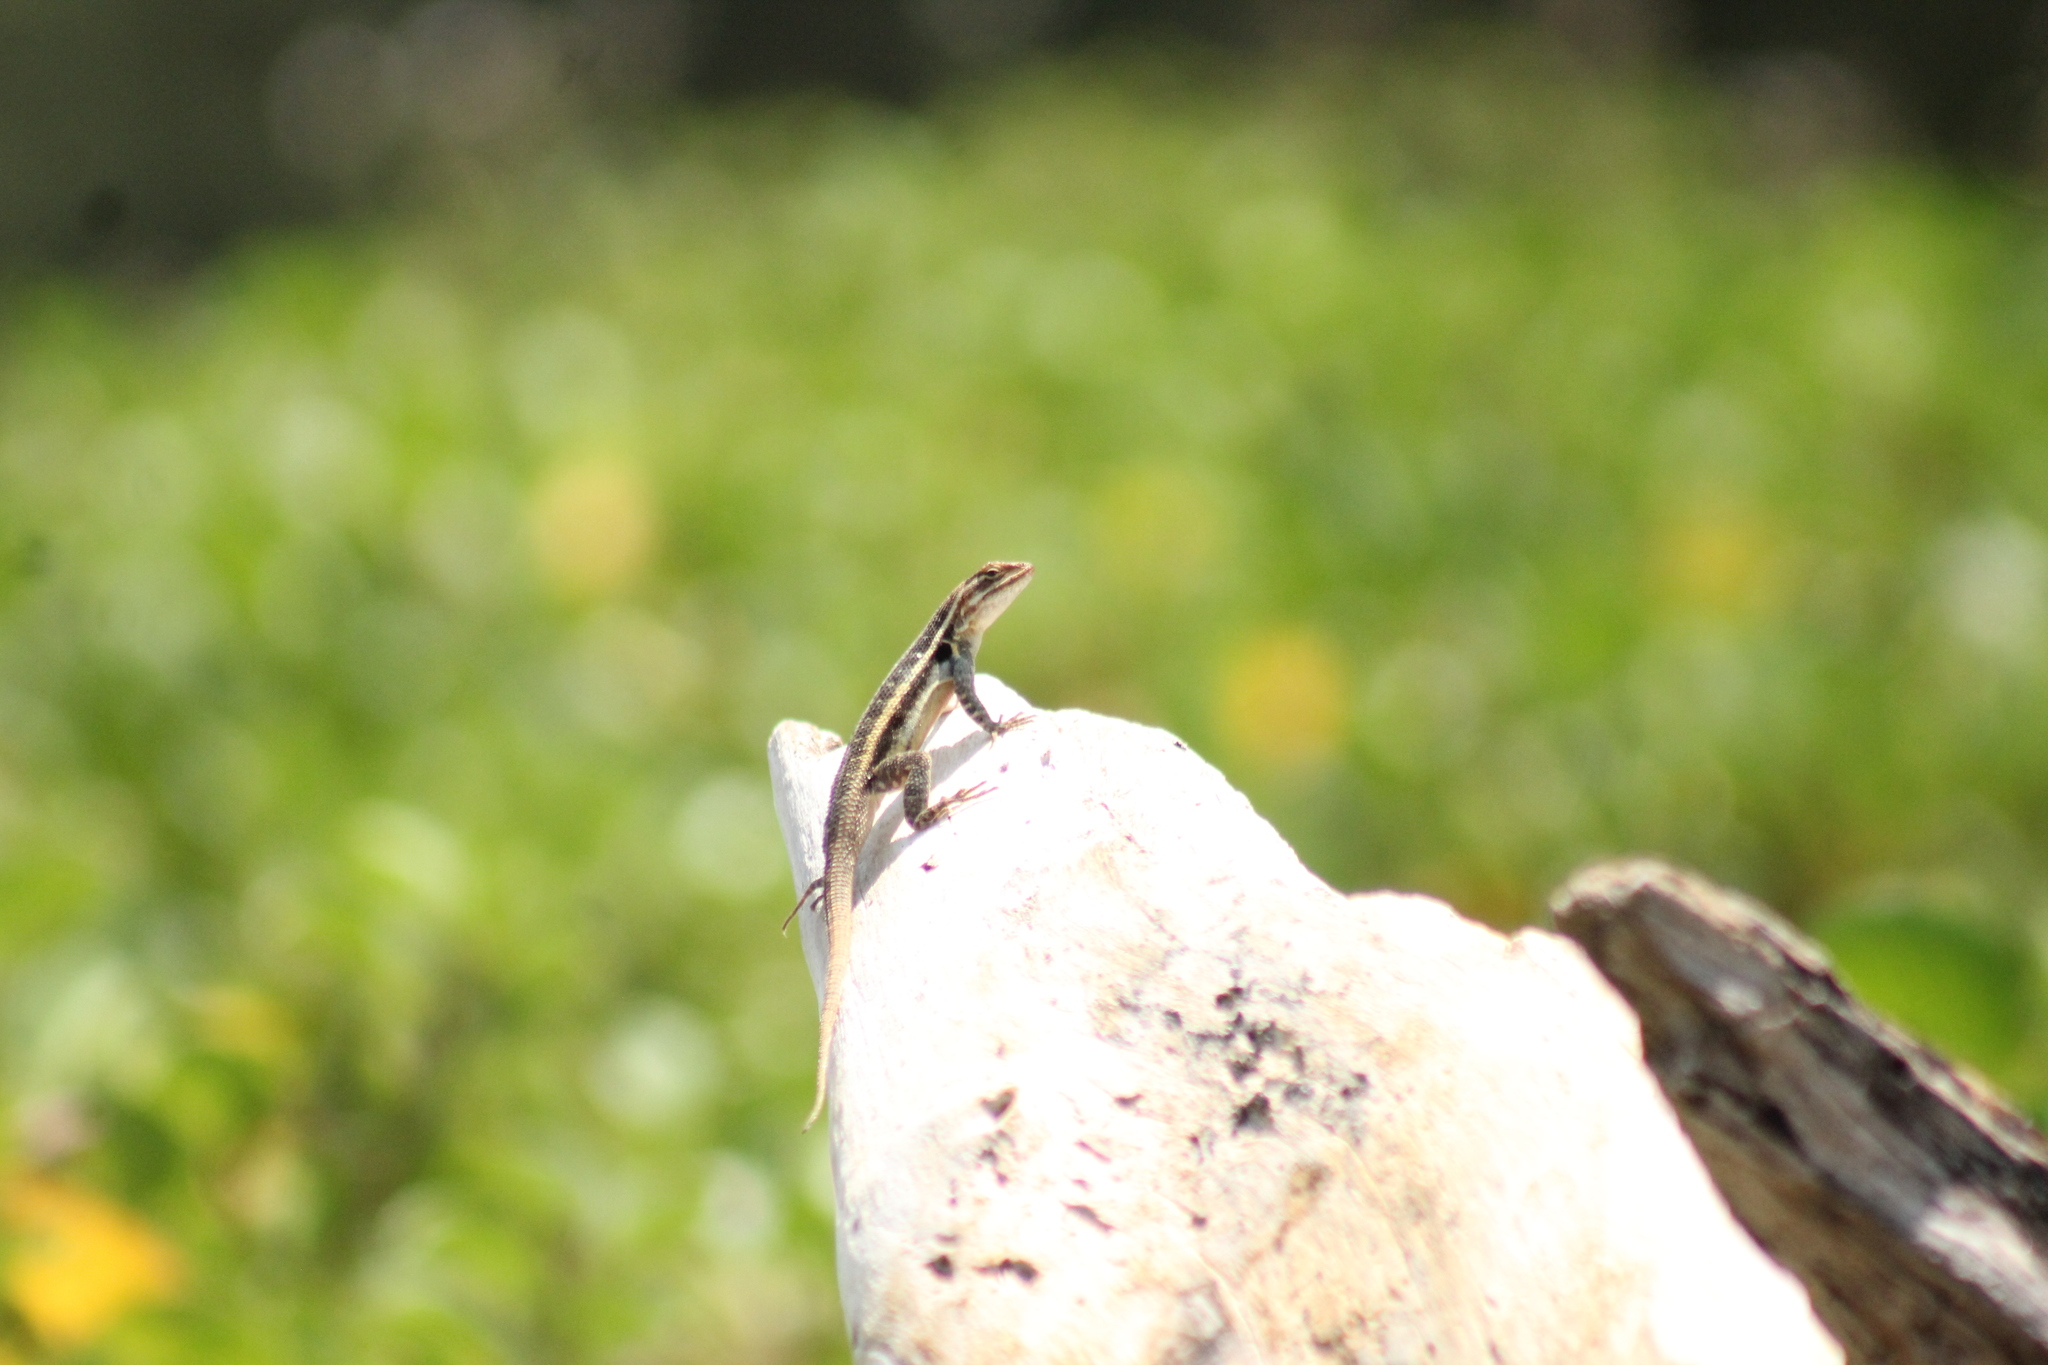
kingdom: Animalia
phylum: Chordata
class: Squamata
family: Phrynosomatidae
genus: Sceloporus
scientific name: Sceloporus variabilis
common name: Rosebelly lizard
